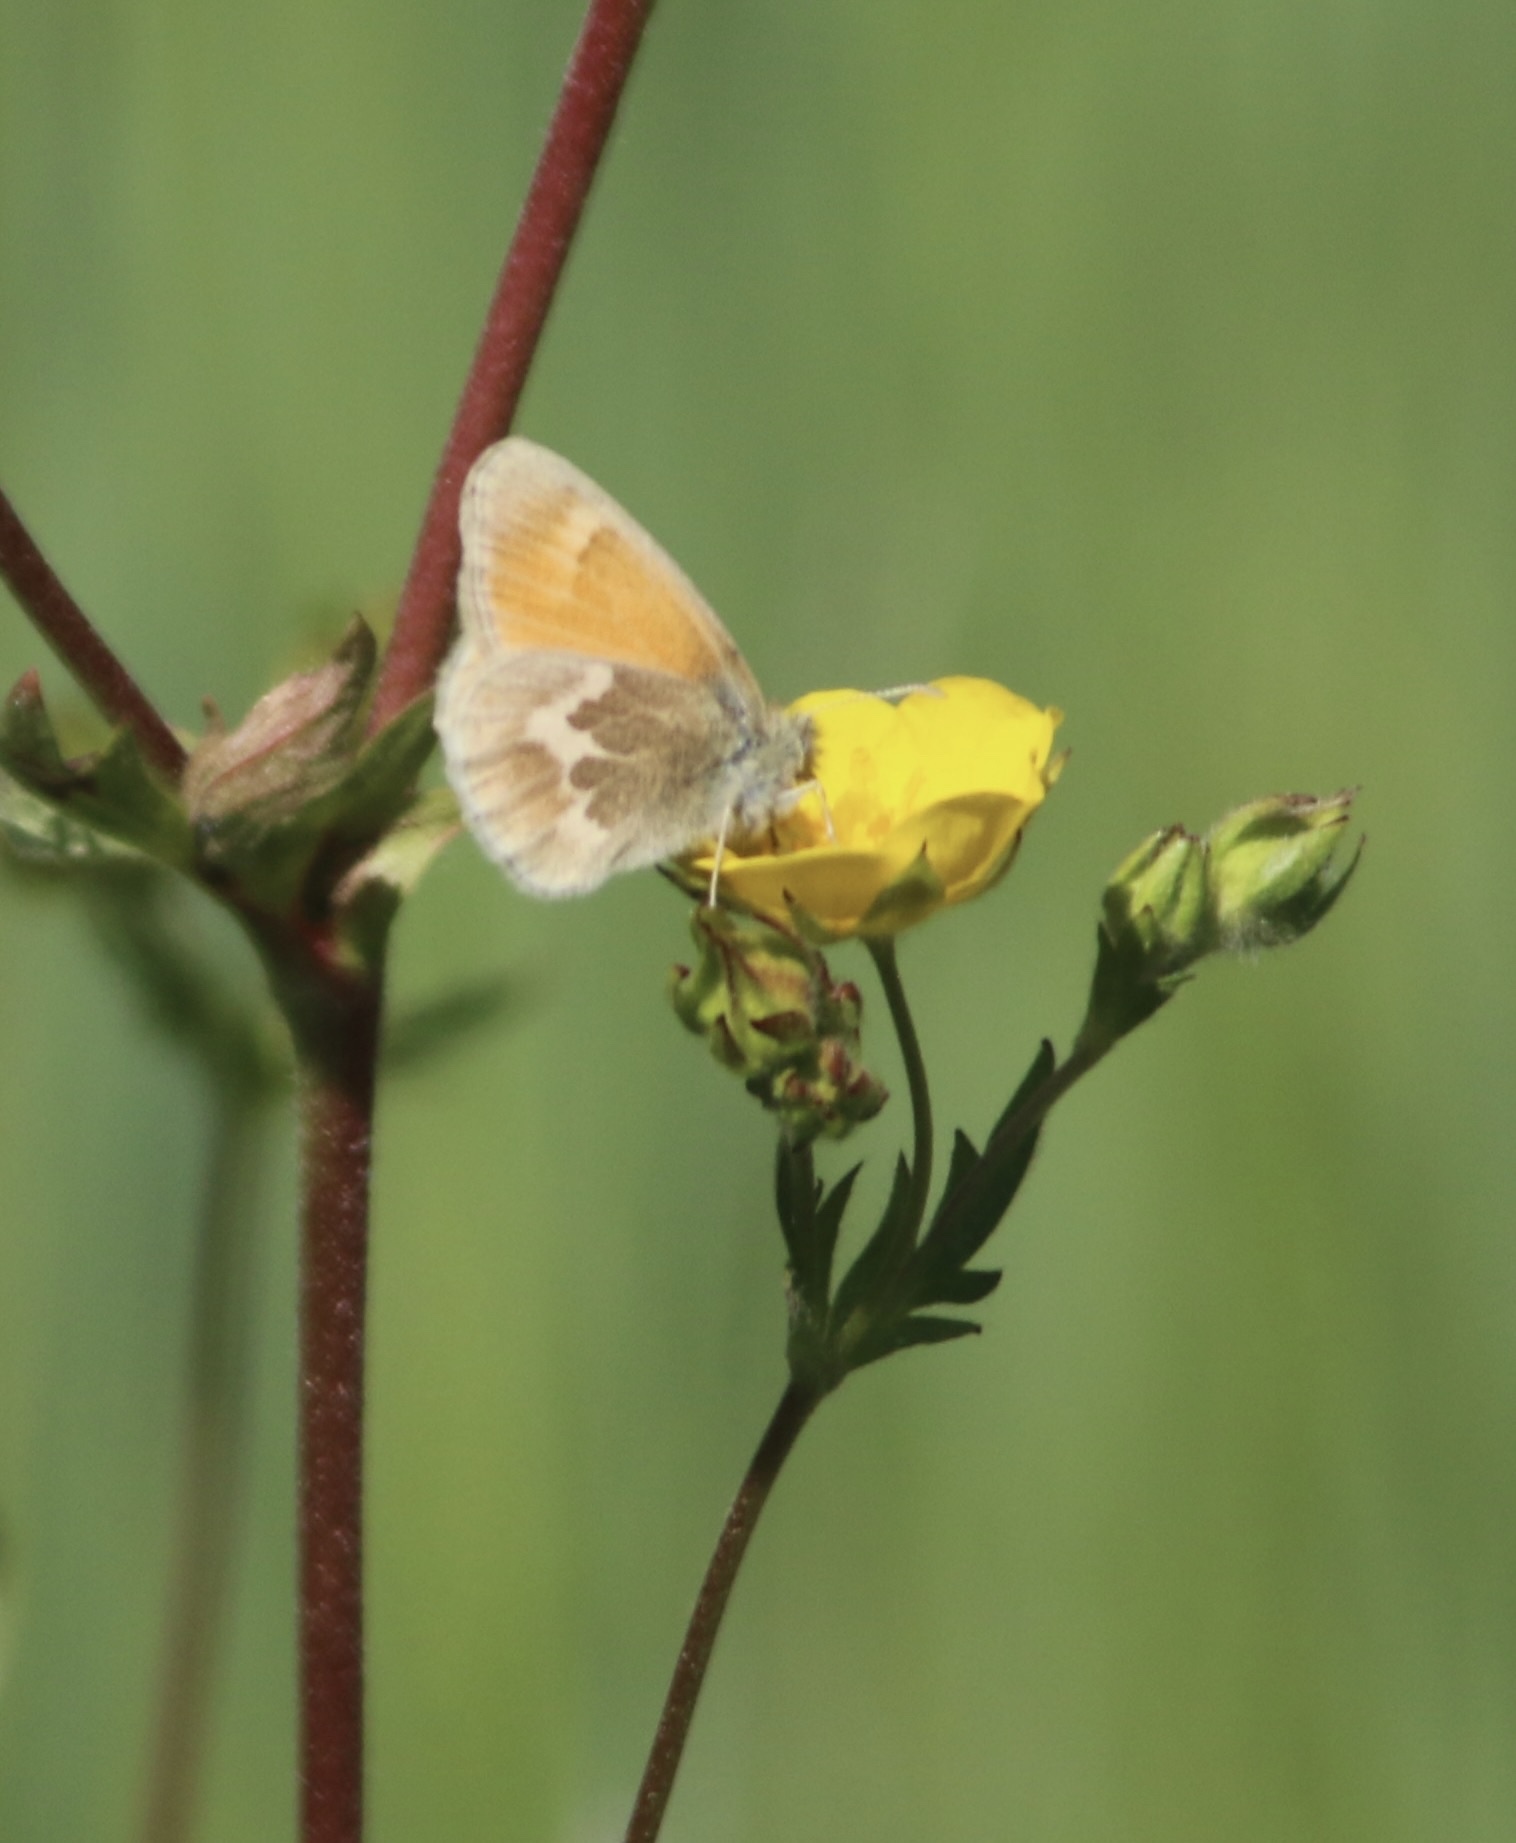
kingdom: Animalia
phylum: Arthropoda
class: Insecta
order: Lepidoptera
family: Nymphalidae
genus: Coenonympha
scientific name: Coenonympha california
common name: Common ringlet
